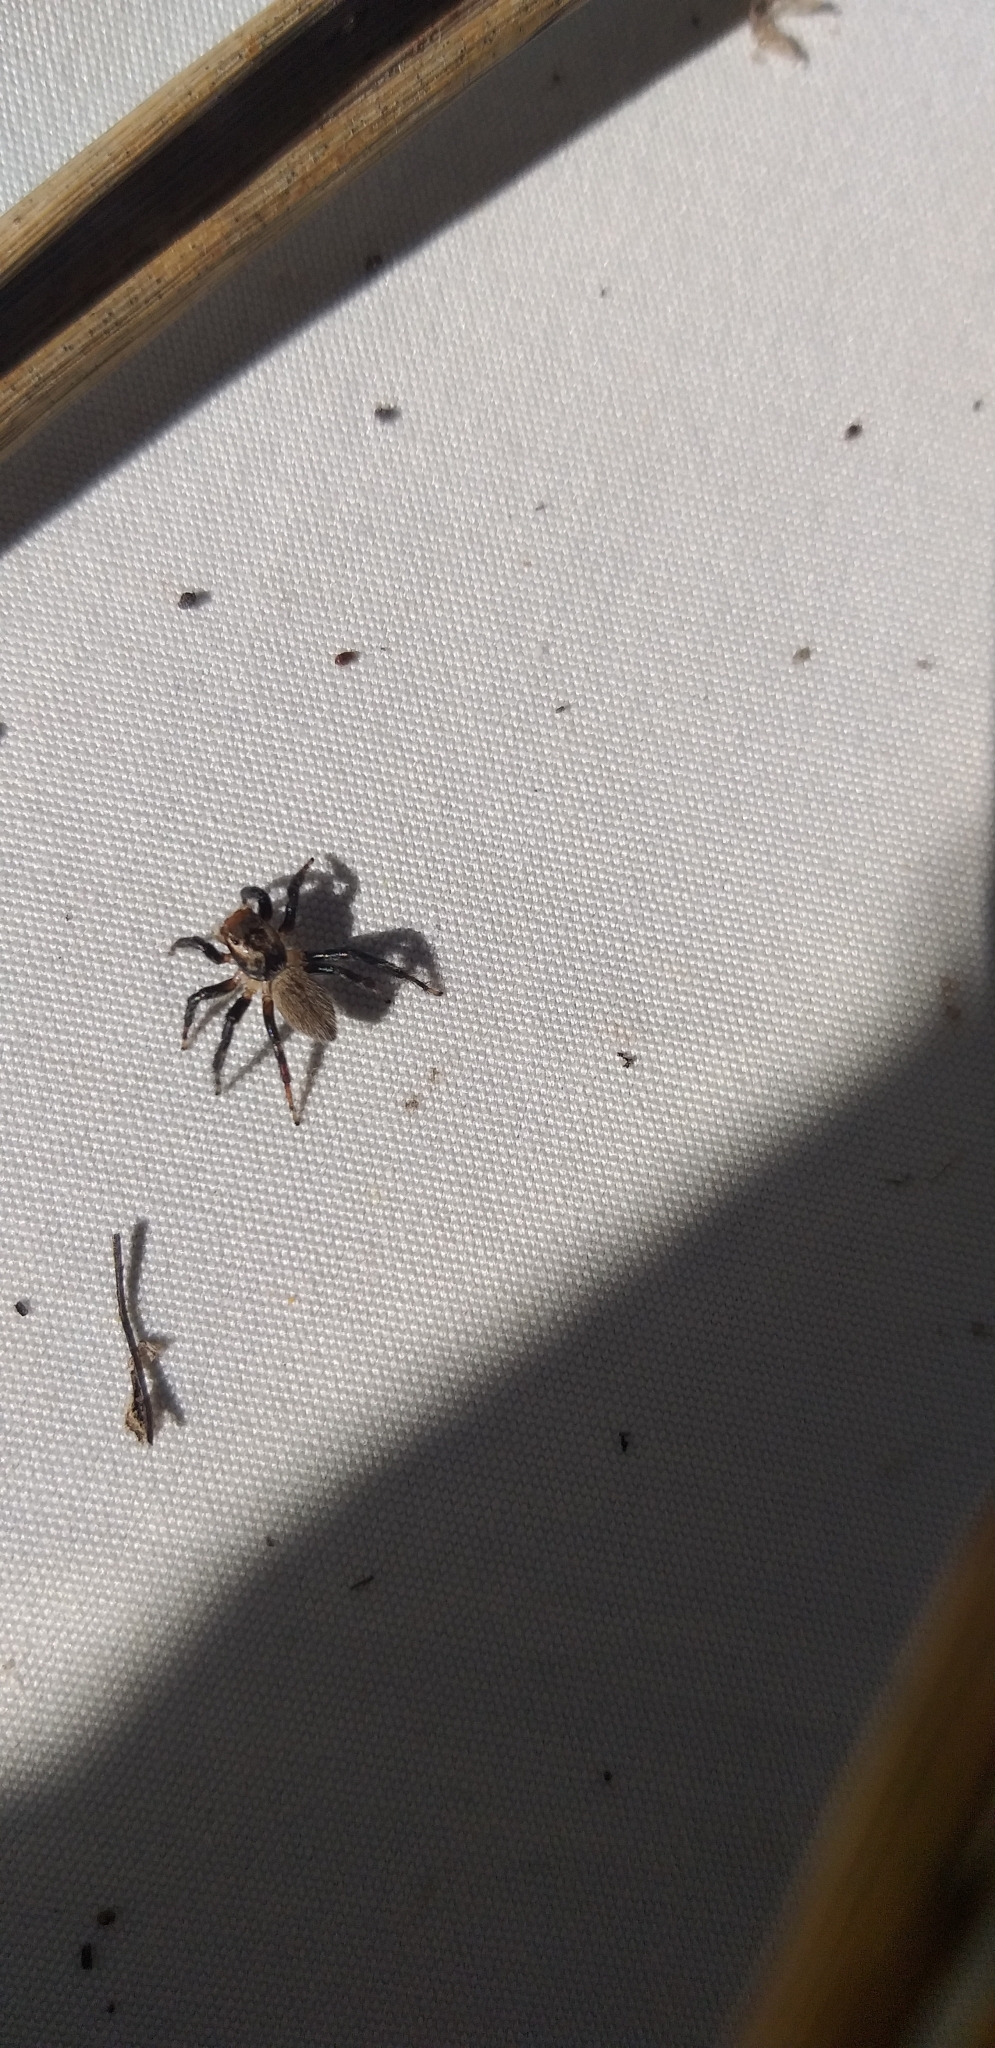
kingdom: Animalia
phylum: Arthropoda
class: Arachnida
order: Araneae
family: Salticidae
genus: Maratus
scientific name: Maratus griseus
